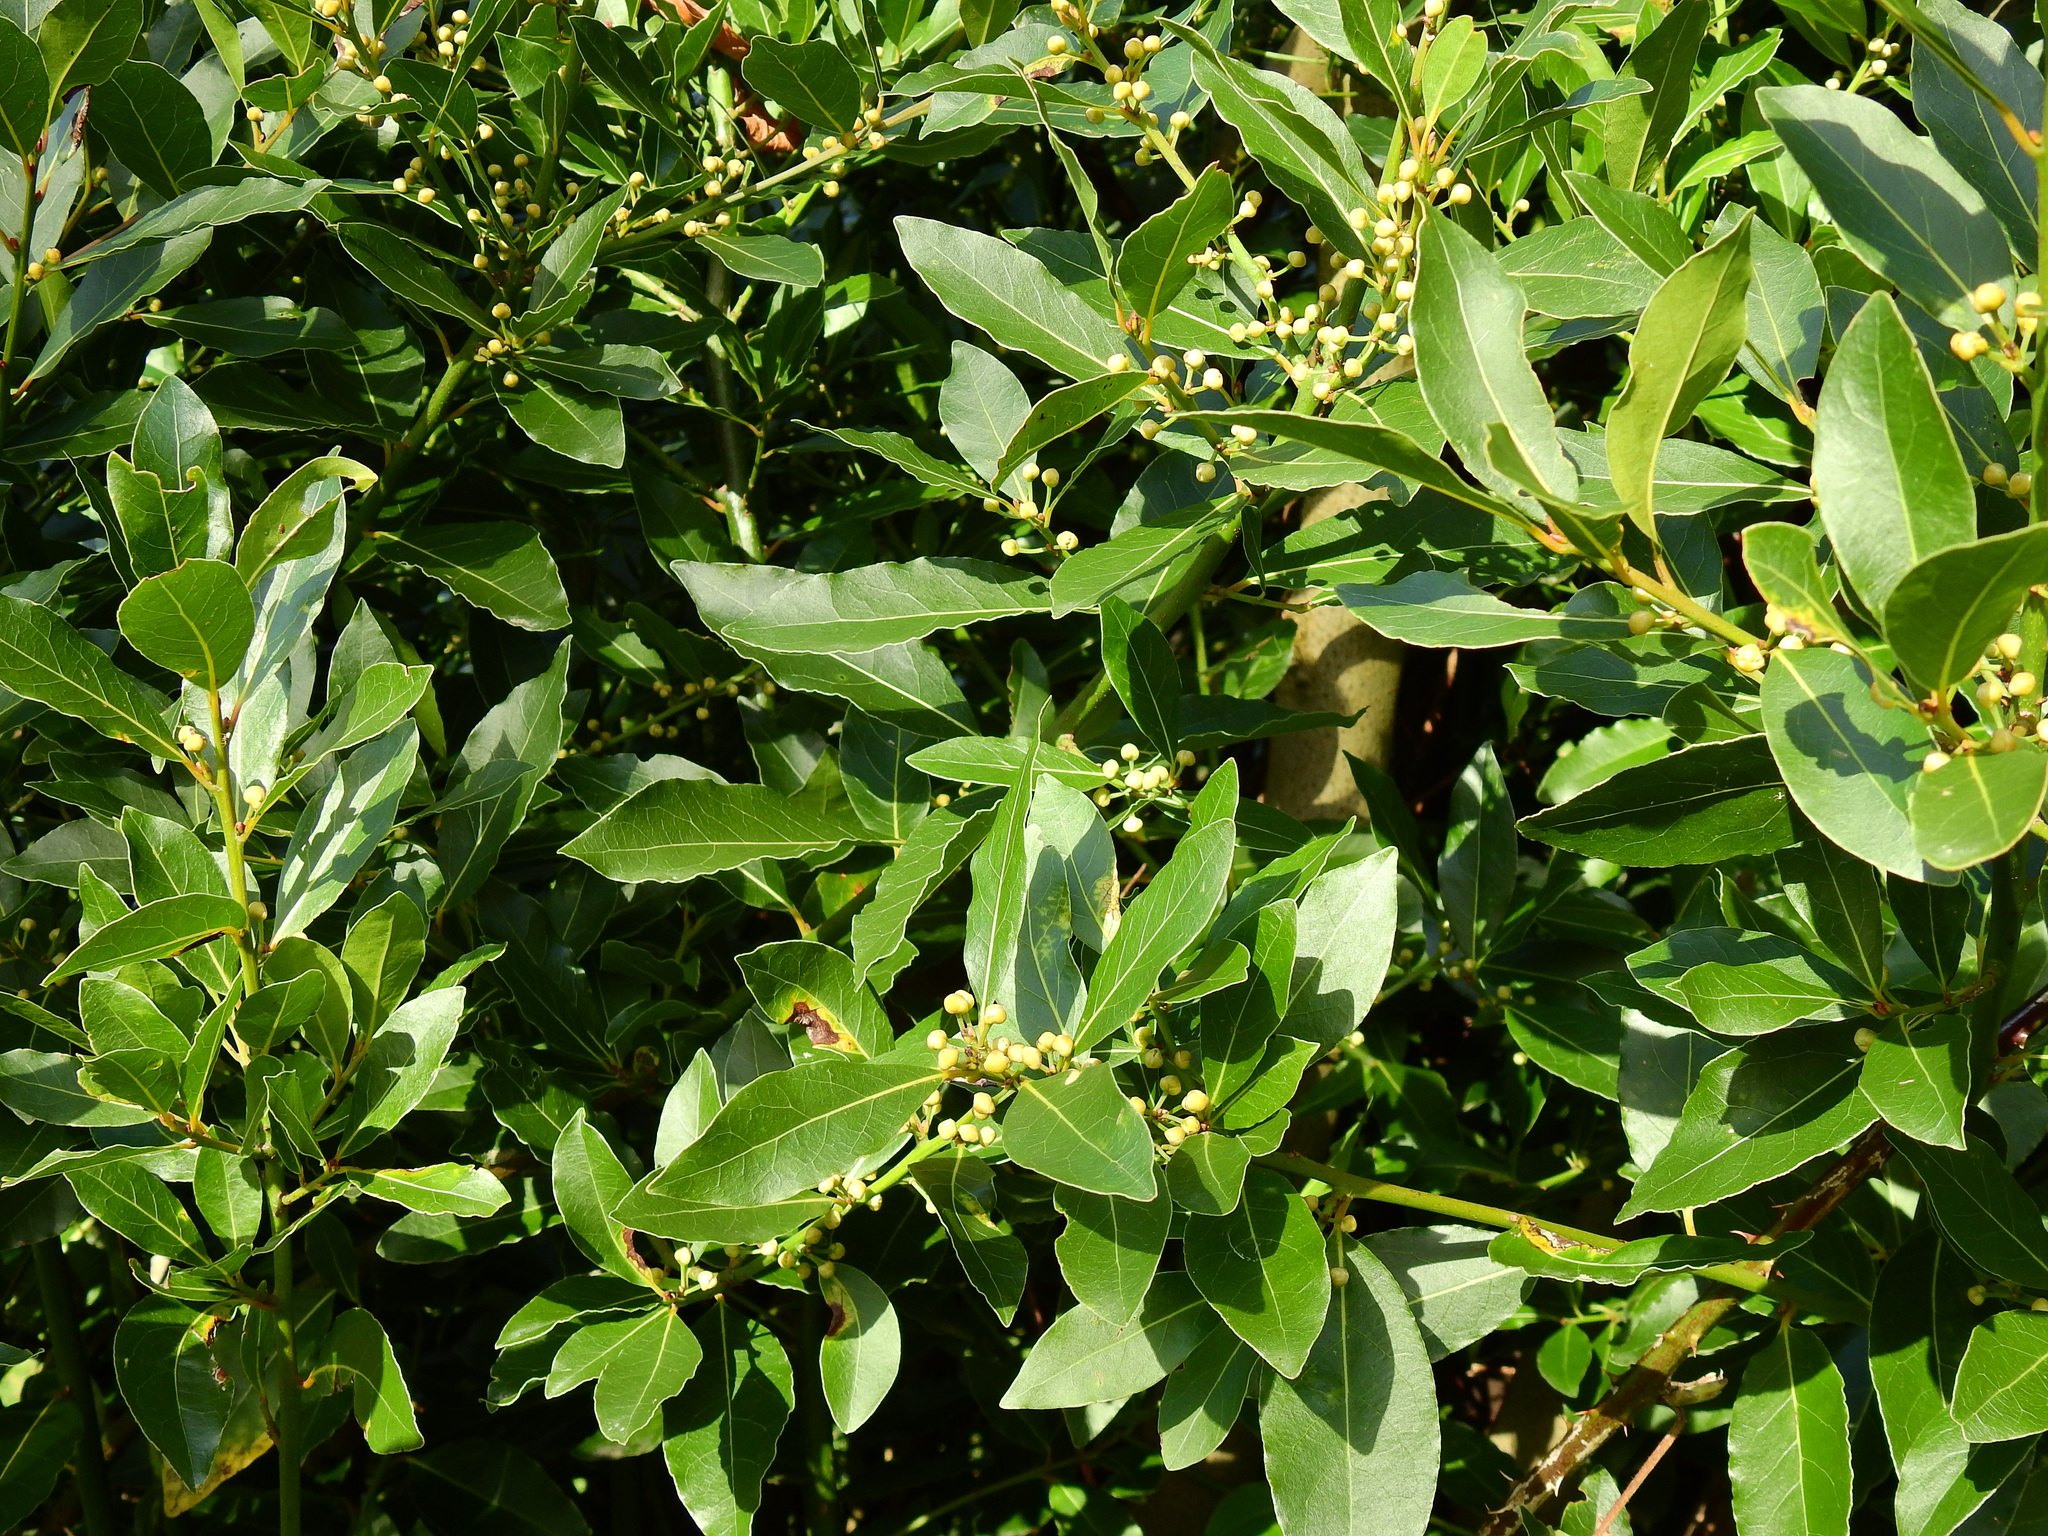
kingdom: Plantae
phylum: Tracheophyta
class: Magnoliopsida
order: Laurales
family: Lauraceae
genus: Laurus
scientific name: Laurus nobilis
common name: Bay
